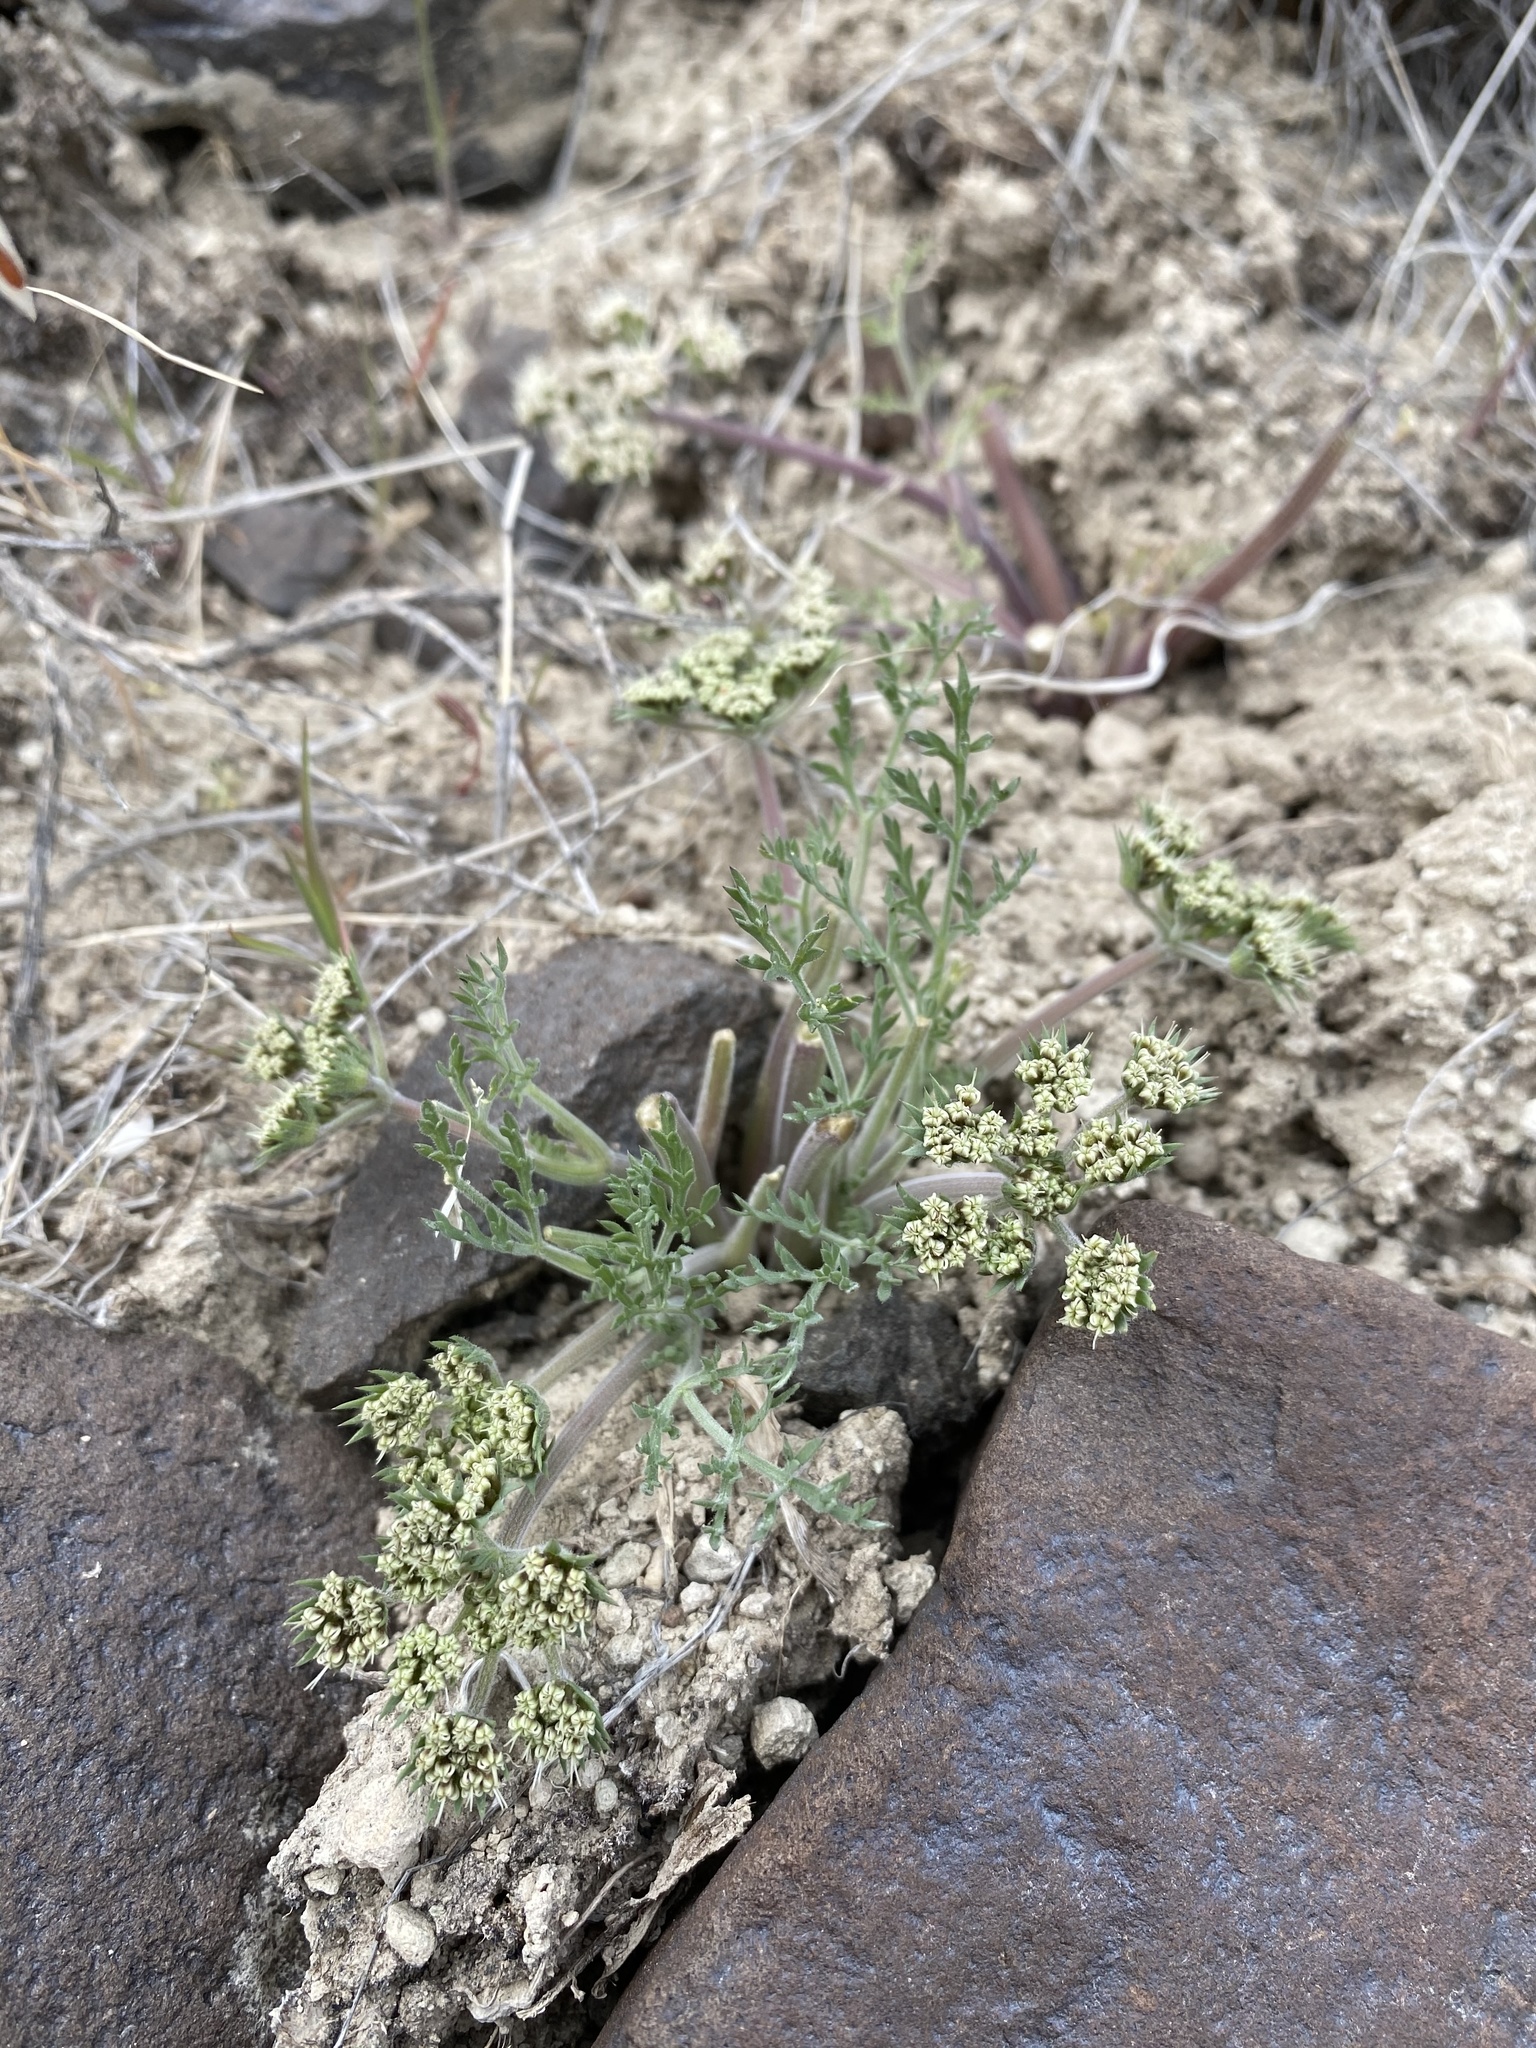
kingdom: Plantae
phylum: Tracheophyta
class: Magnoliopsida
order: Apiales
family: Apiaceae
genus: Lomatium
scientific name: Lomatium macrocarpum
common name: Big-seed biscuitroot
